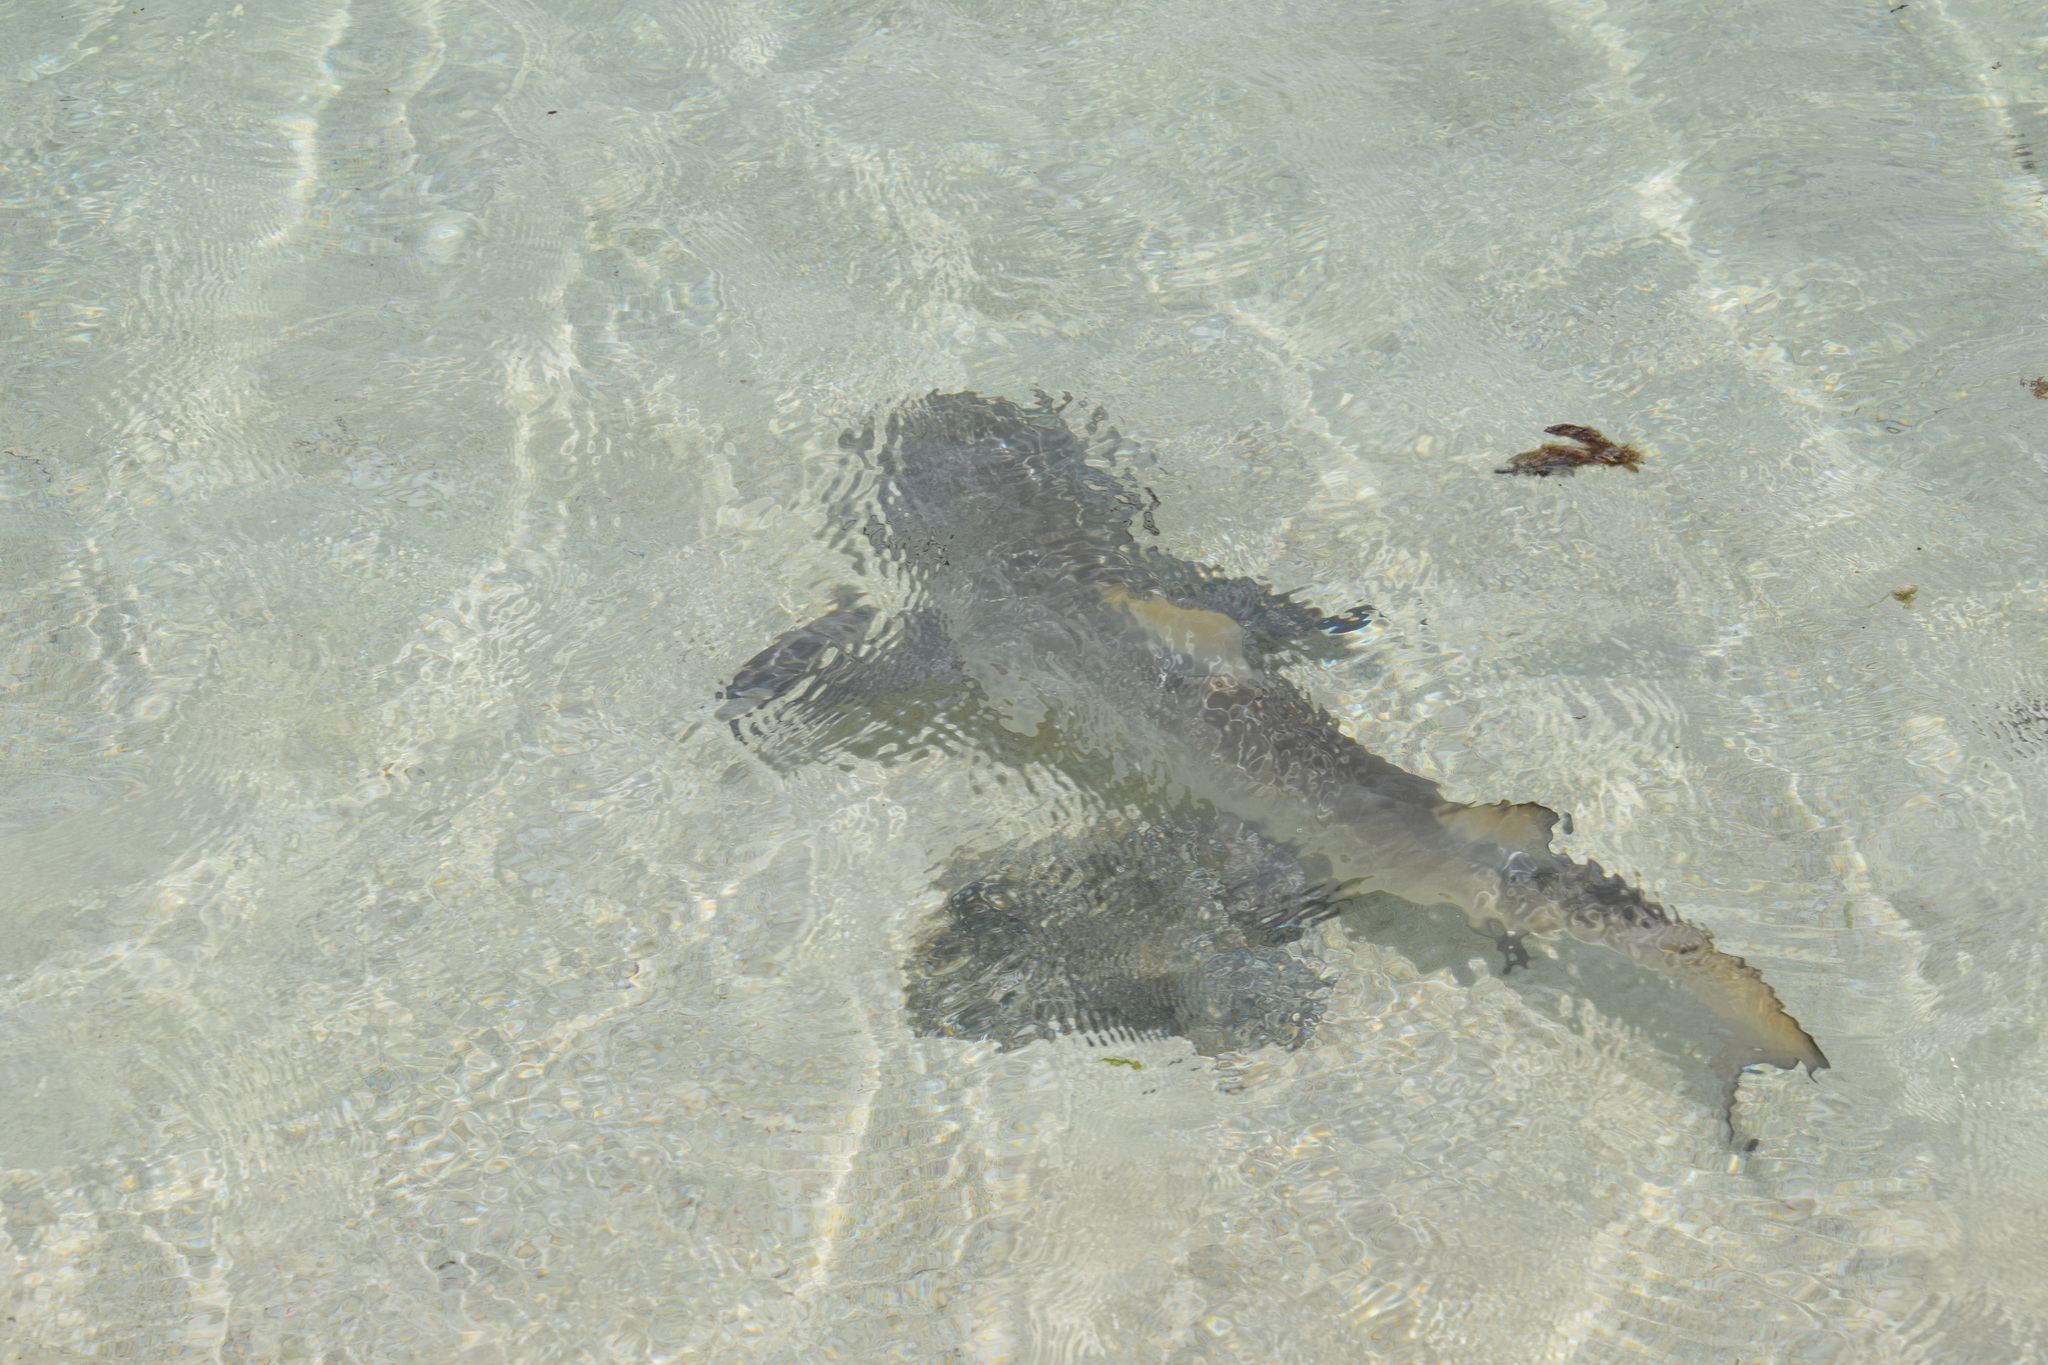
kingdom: Animalia
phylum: Chordata
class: Elasmobranchii
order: Carcharhiniformes
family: Carcharhinidae
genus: Negaprion
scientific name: Negaprion acutidens
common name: Lemon shark
